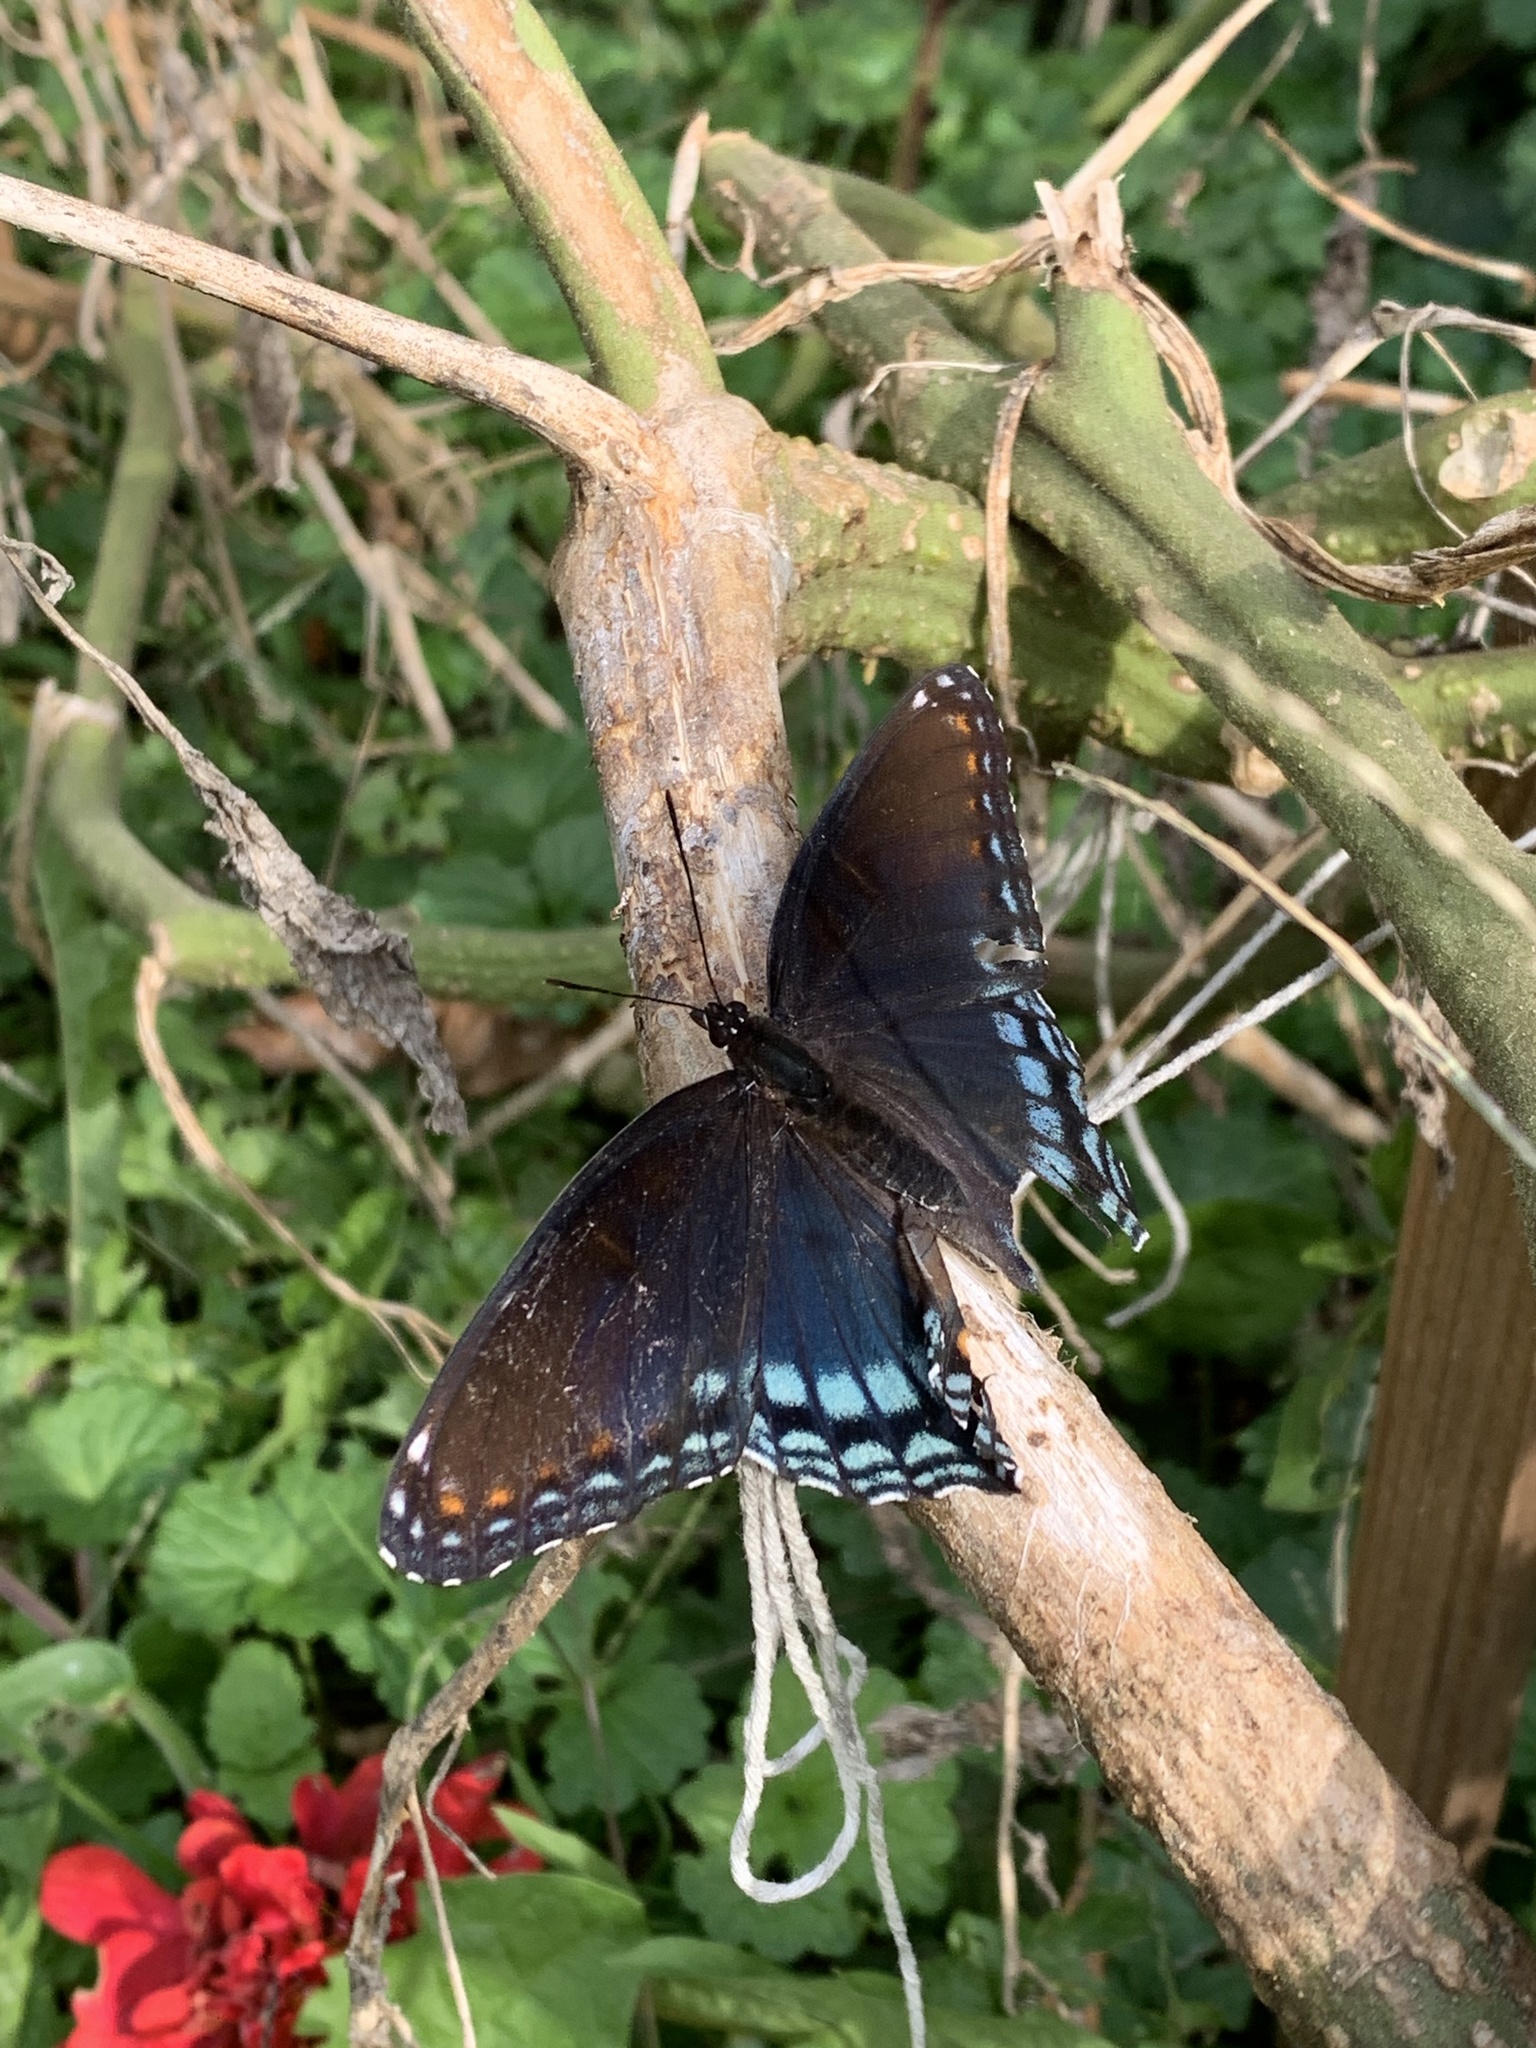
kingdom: Animalia
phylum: Arthropoda
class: Insecta
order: Lepidoptera
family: Nymphalidae
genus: Limenitis
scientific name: Limenitis astyanax
